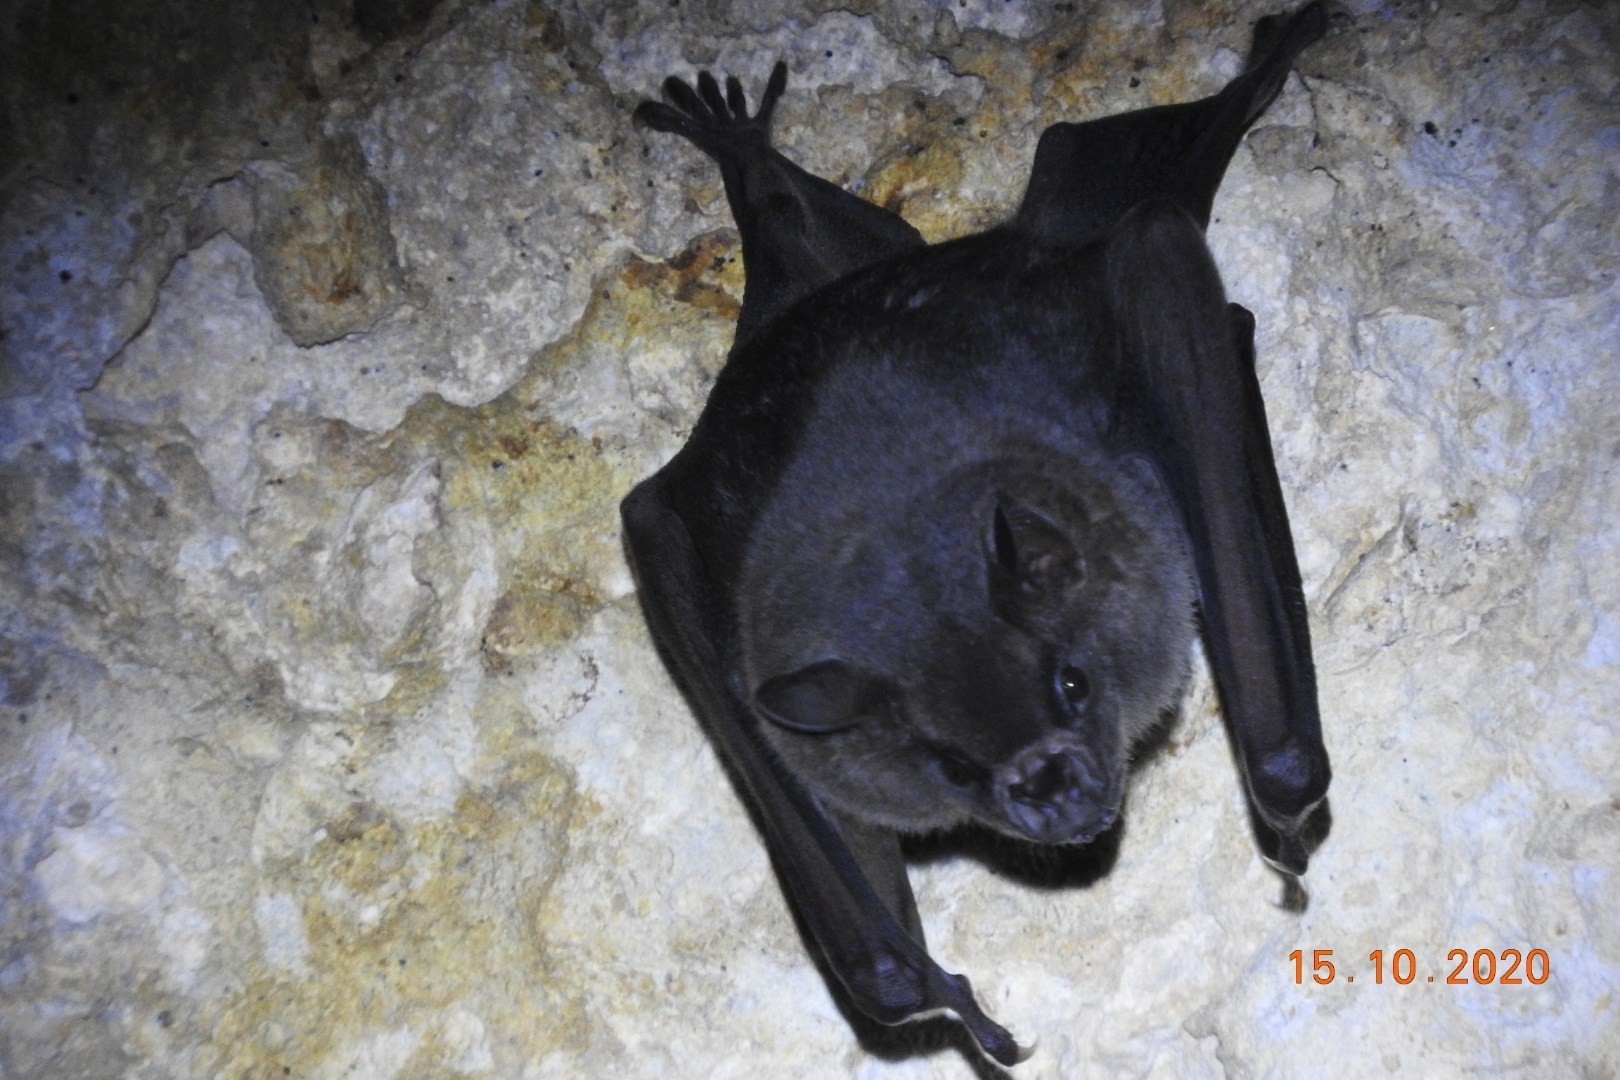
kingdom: Animalia
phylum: Chordata
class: Mammalia
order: Chiroptera
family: Phyllostomidae
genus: Artibeus
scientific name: Artibeus jamaicensis
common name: Jamaican fruit-eating bat
